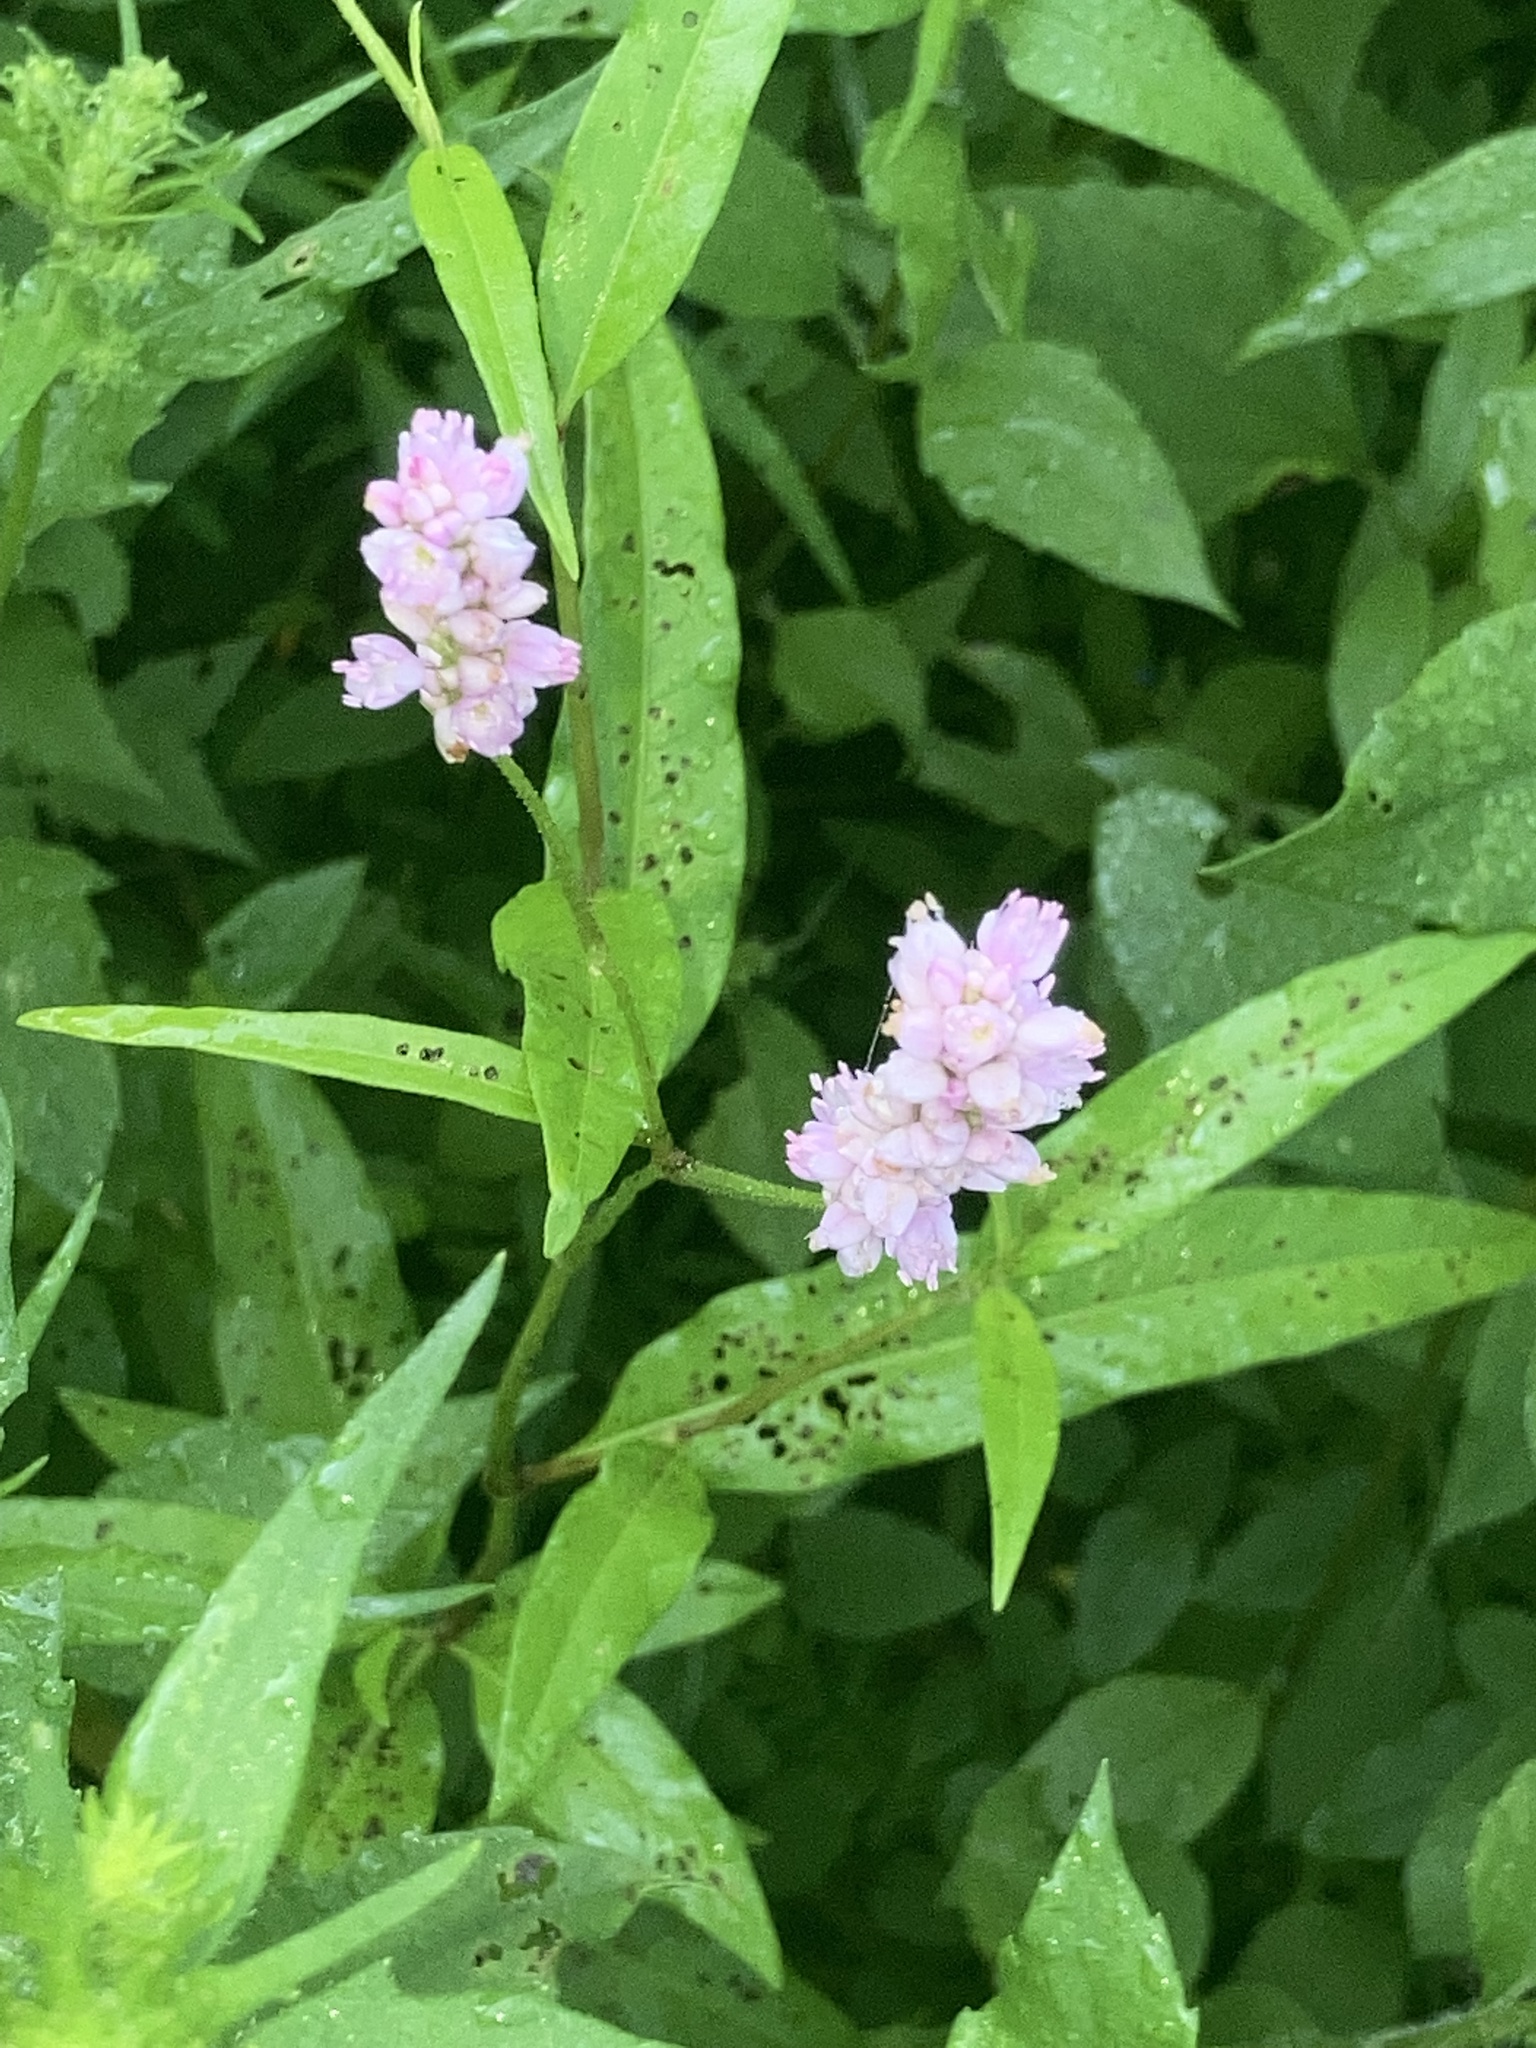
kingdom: Plantae
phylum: Tracheophyta
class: Magnoliopsida
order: Caryophyllales
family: Polygonaceae
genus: Persicaria
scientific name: Persicaria bicornis
